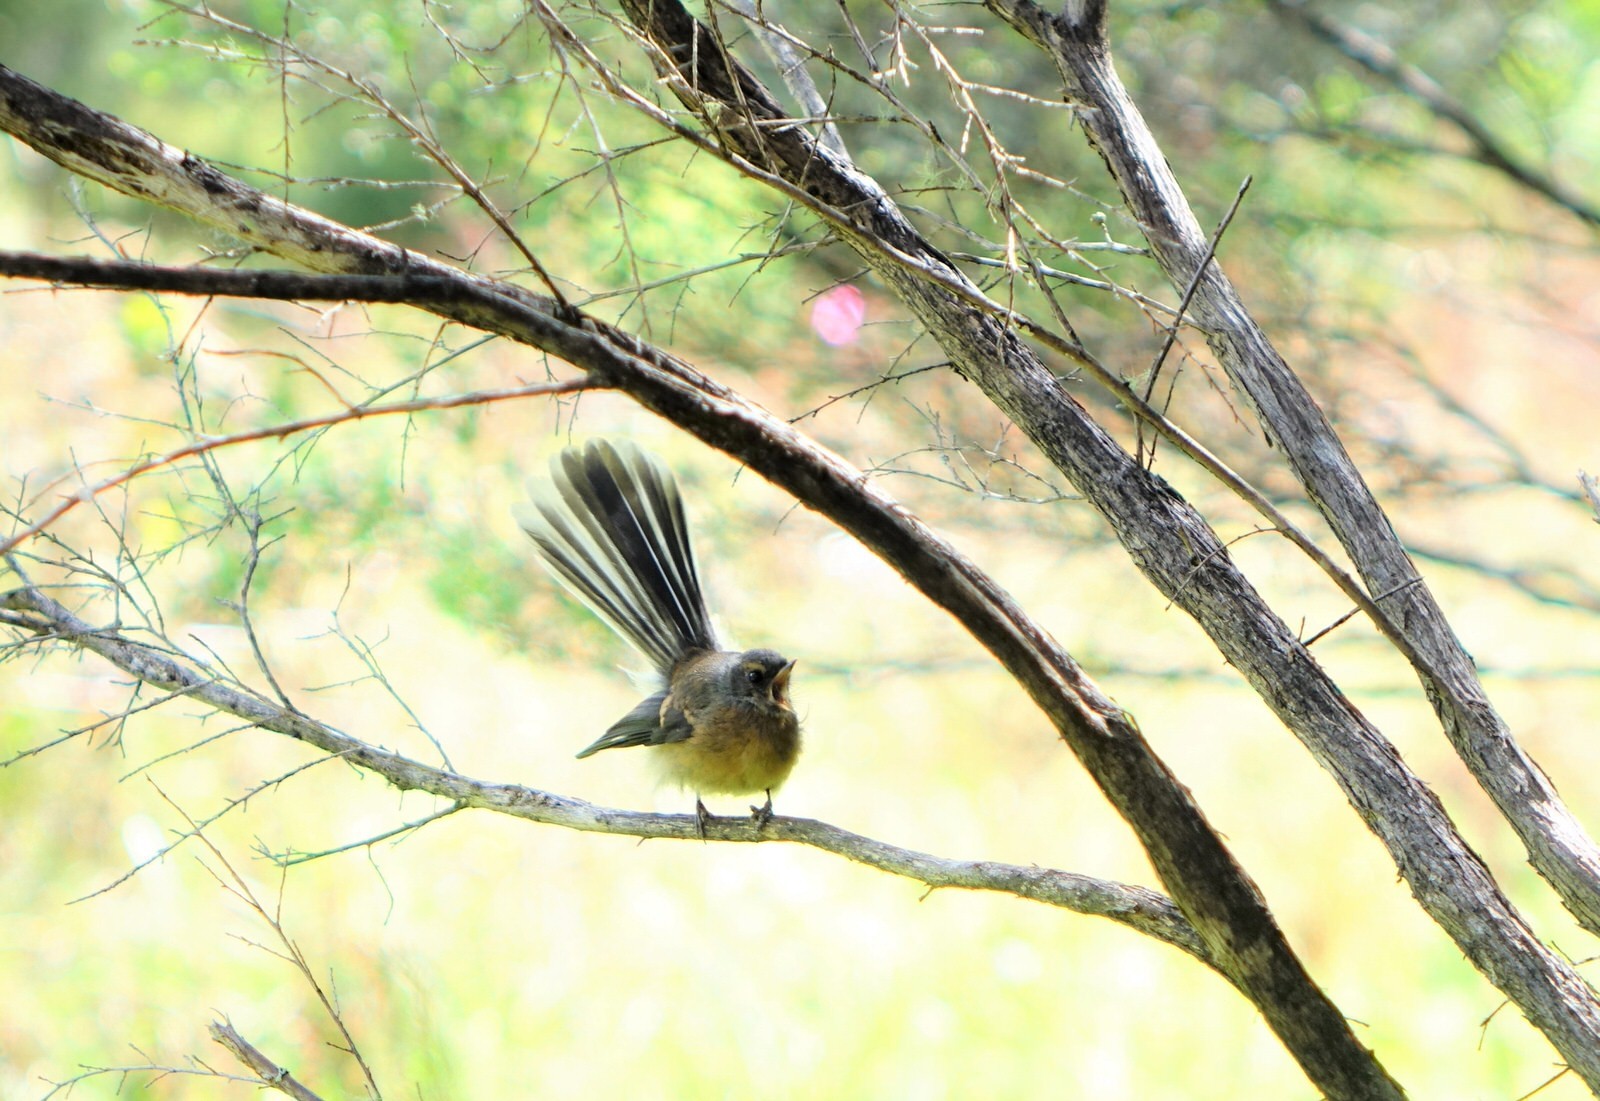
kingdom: Animalia
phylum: Chordata
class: Aves
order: Passeriformes
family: Rhipiduridae
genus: Rhipidura
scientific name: Rhipidura fuliginosa
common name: New zealand fantail
